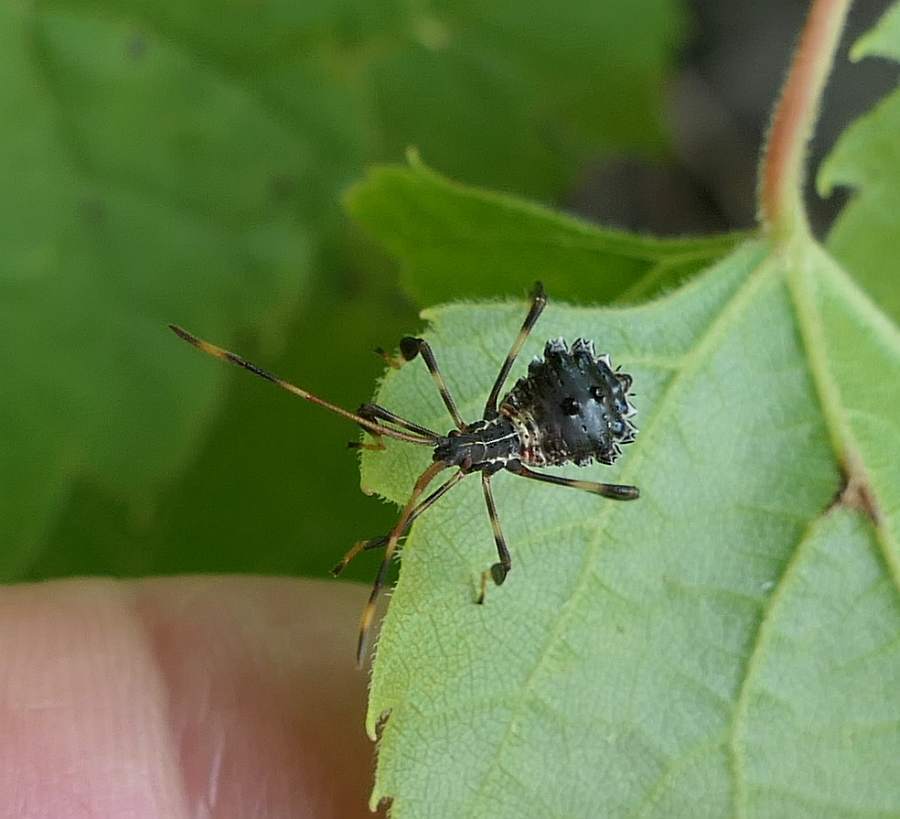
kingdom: Animalia
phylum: Arthropoda
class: Insecta
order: Hemiptera
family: Coreidae
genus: Acanthocephala
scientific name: Acanthocephala terminalis
